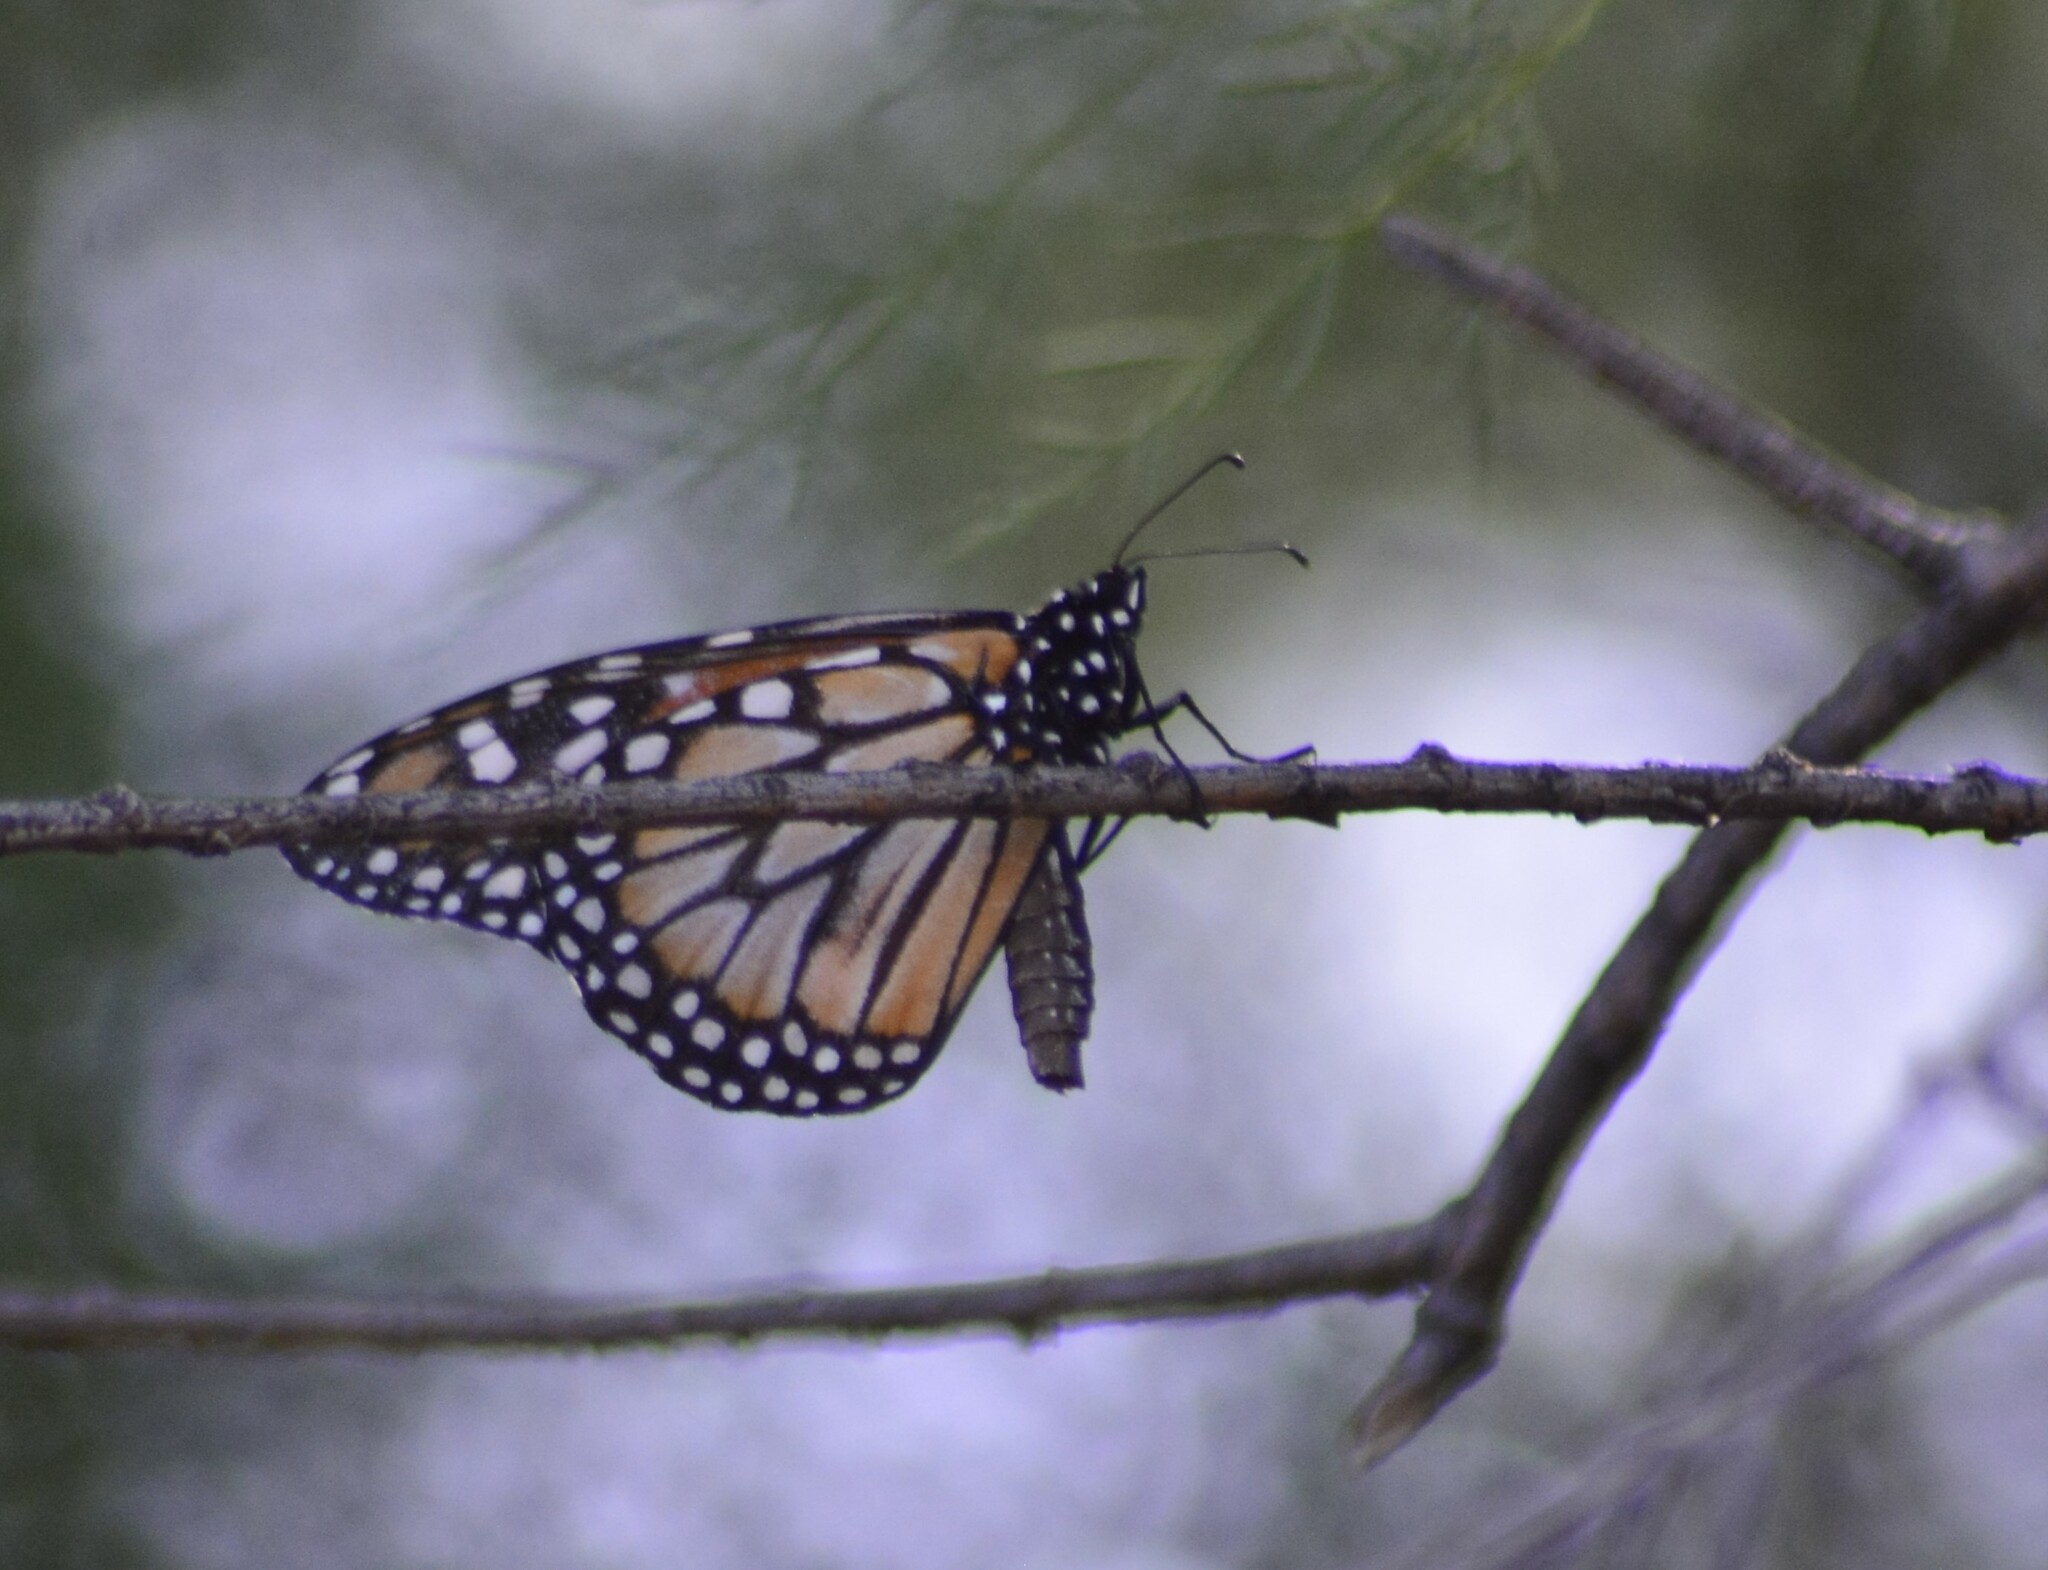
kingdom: Animalia
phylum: Arthropoda
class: Insecta
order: Lepidoptera
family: Nymphalidae
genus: Danaus
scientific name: Danaus erippus
